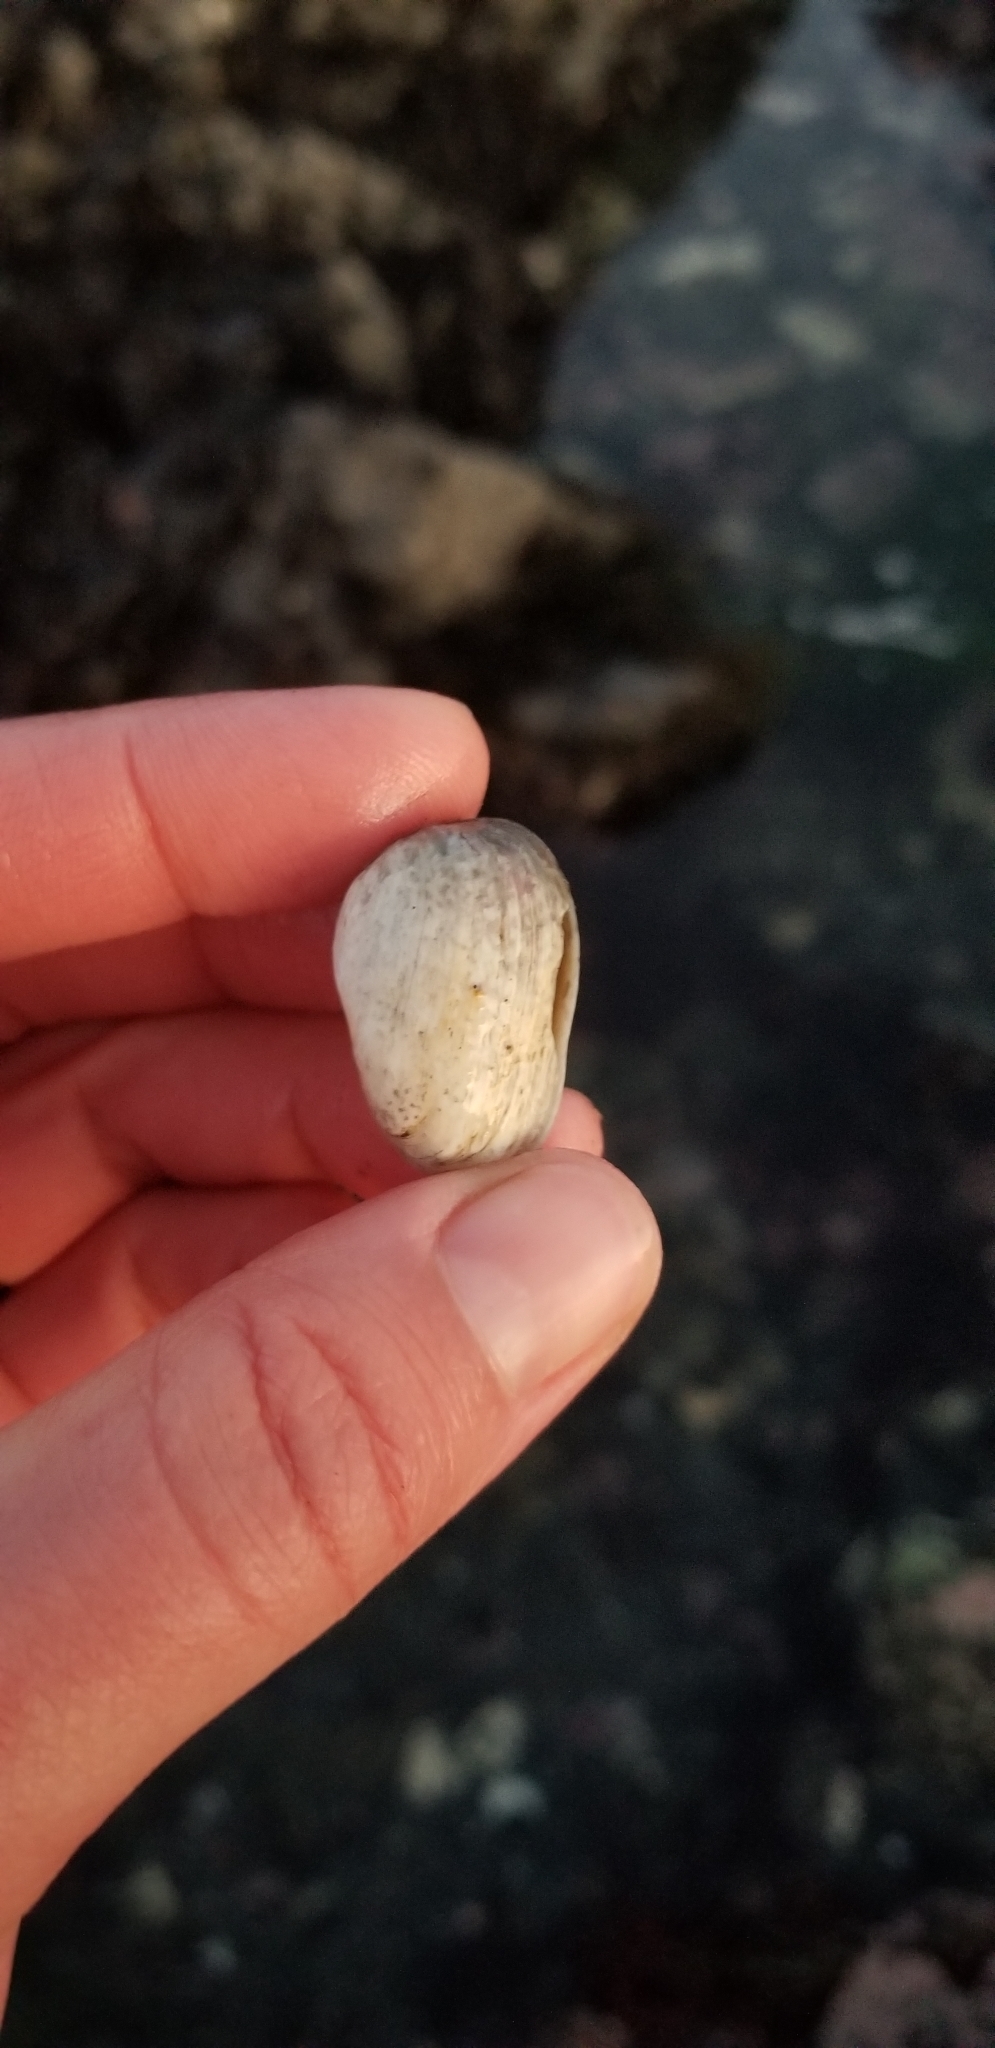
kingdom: Animalia
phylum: Mollusca
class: Bivalvia
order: Venerida
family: Veneridae
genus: Petricola
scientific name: Petricola carditoides
